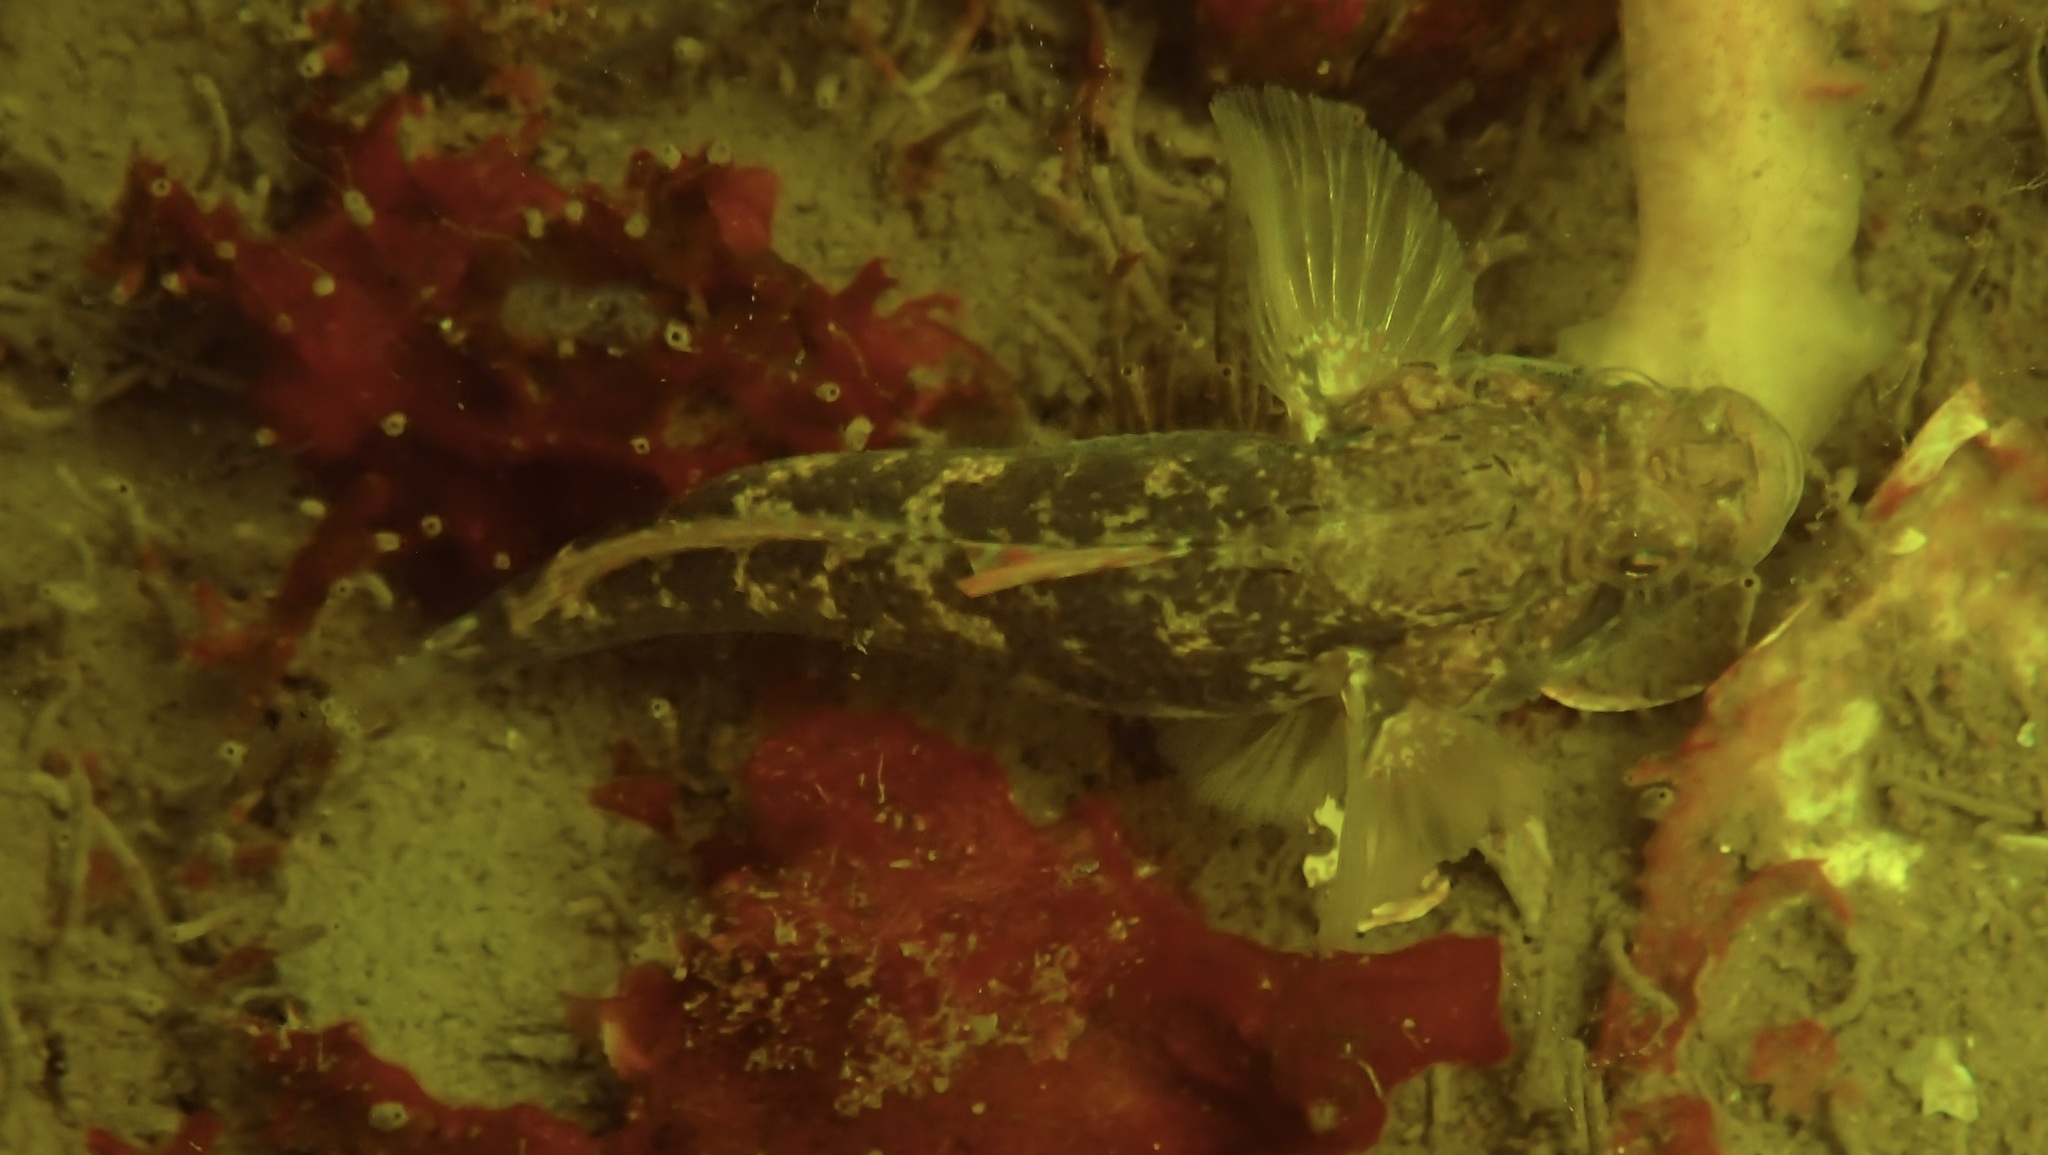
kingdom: Animalia
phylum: Chordata
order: Perciformes
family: Gobiidae
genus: Gobius
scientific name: Gobius niger
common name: Black goby
